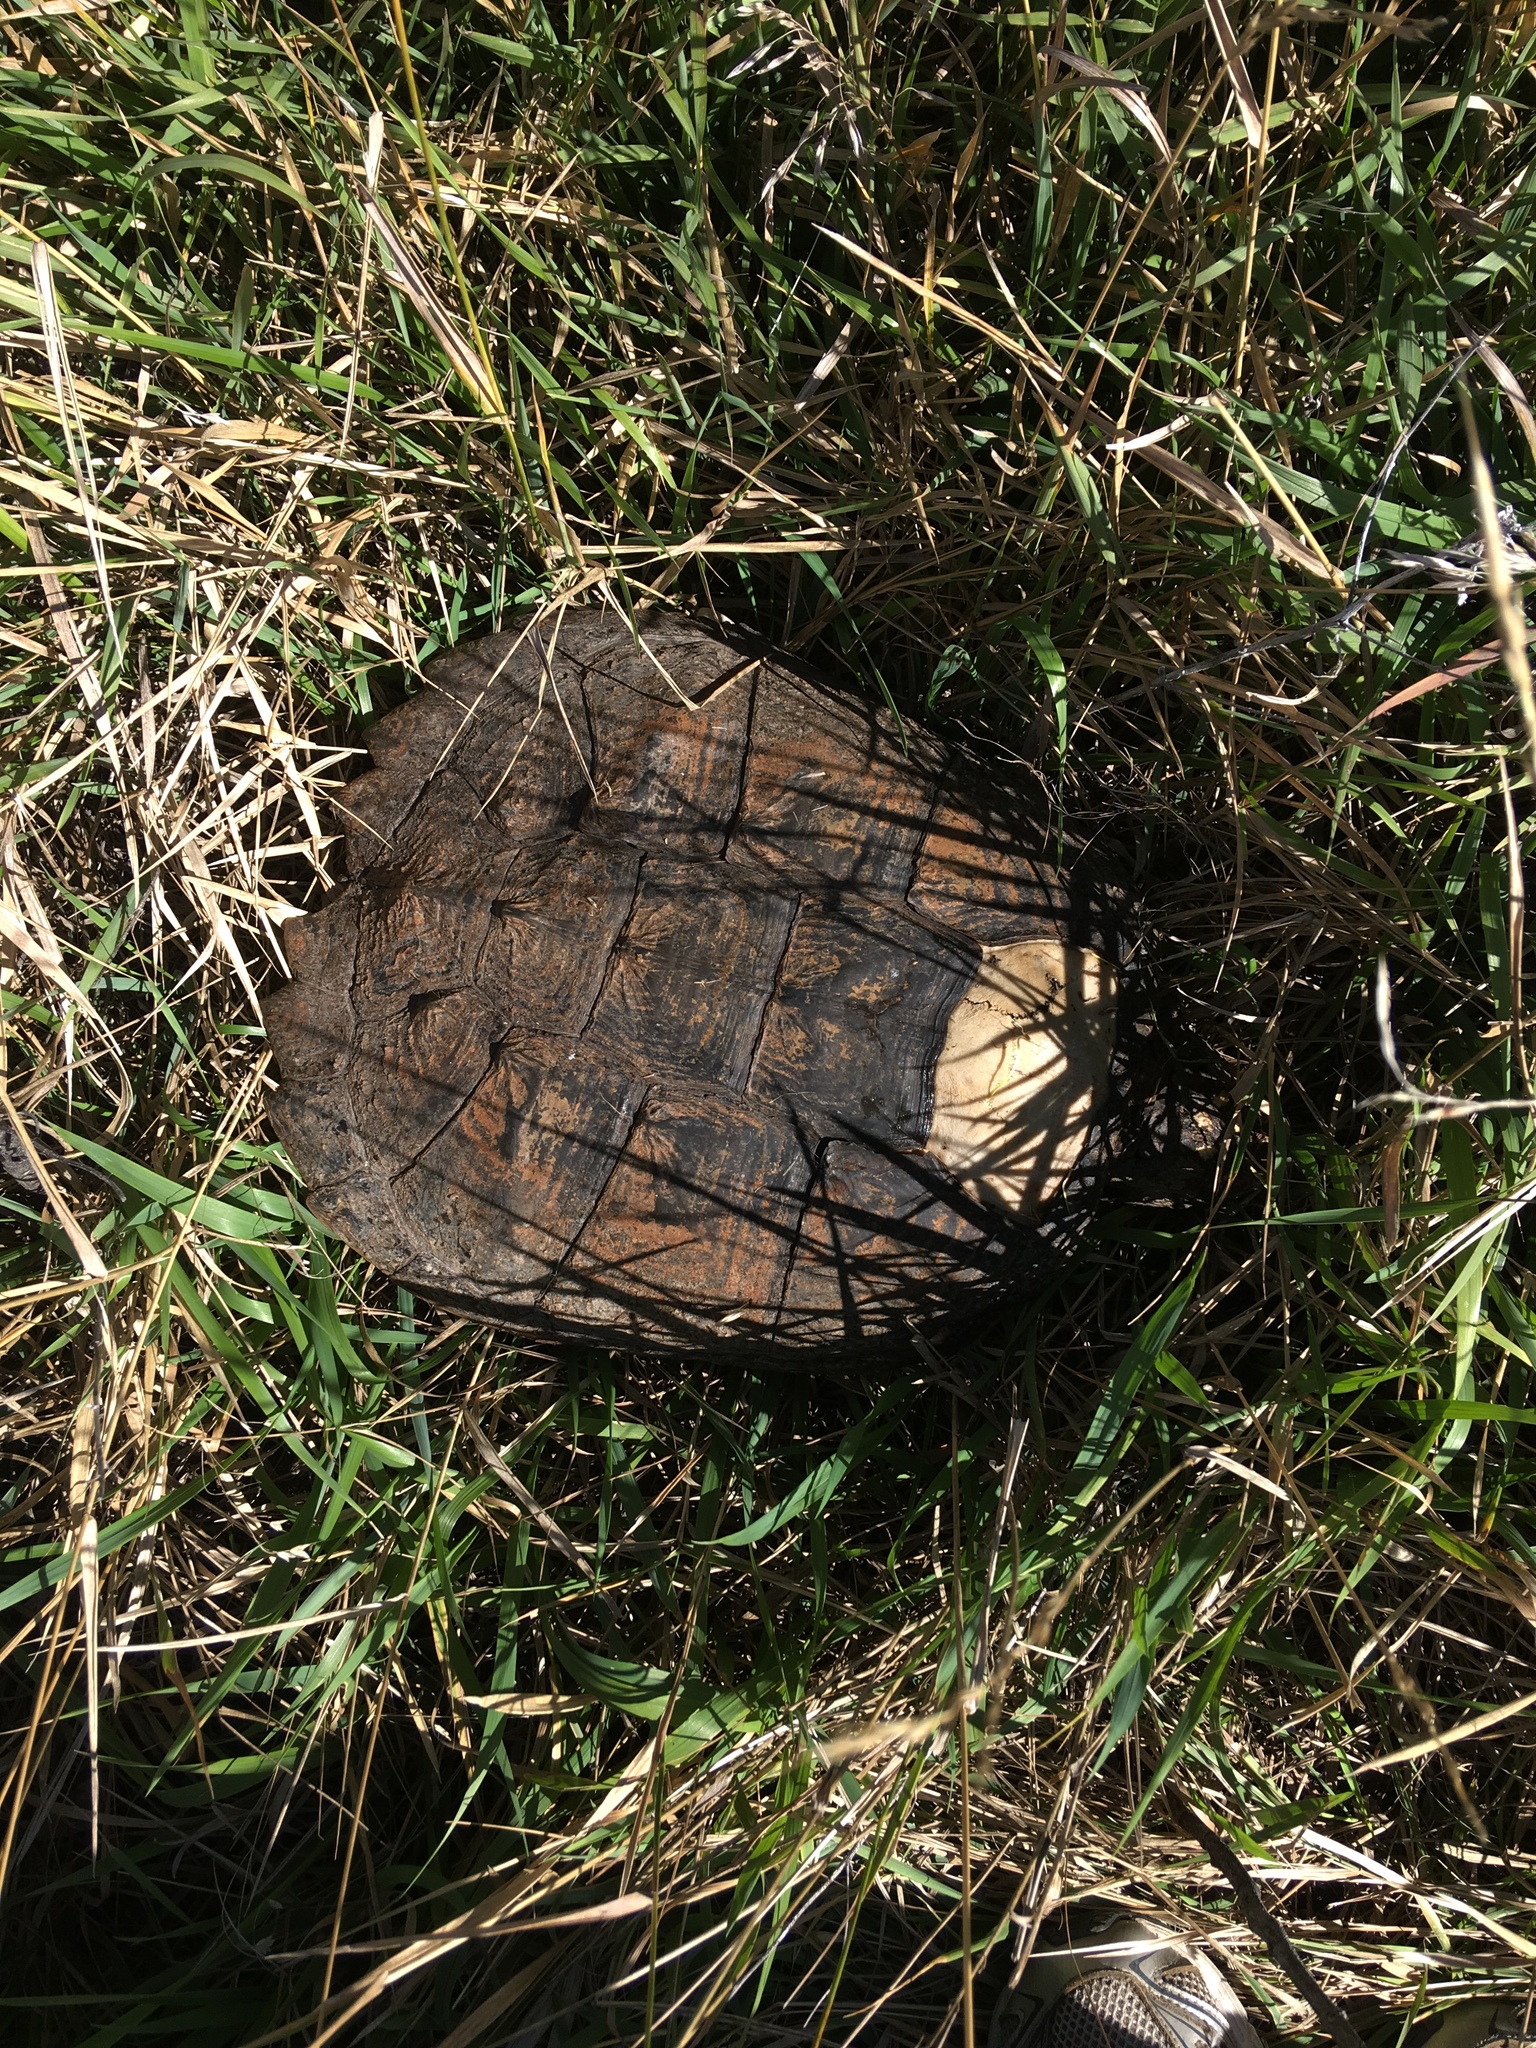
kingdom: Animalia
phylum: Chordata
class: Testudines
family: Chelydridae
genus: Chelydra
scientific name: Chelydra serpentina
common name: Common snapping turtle
